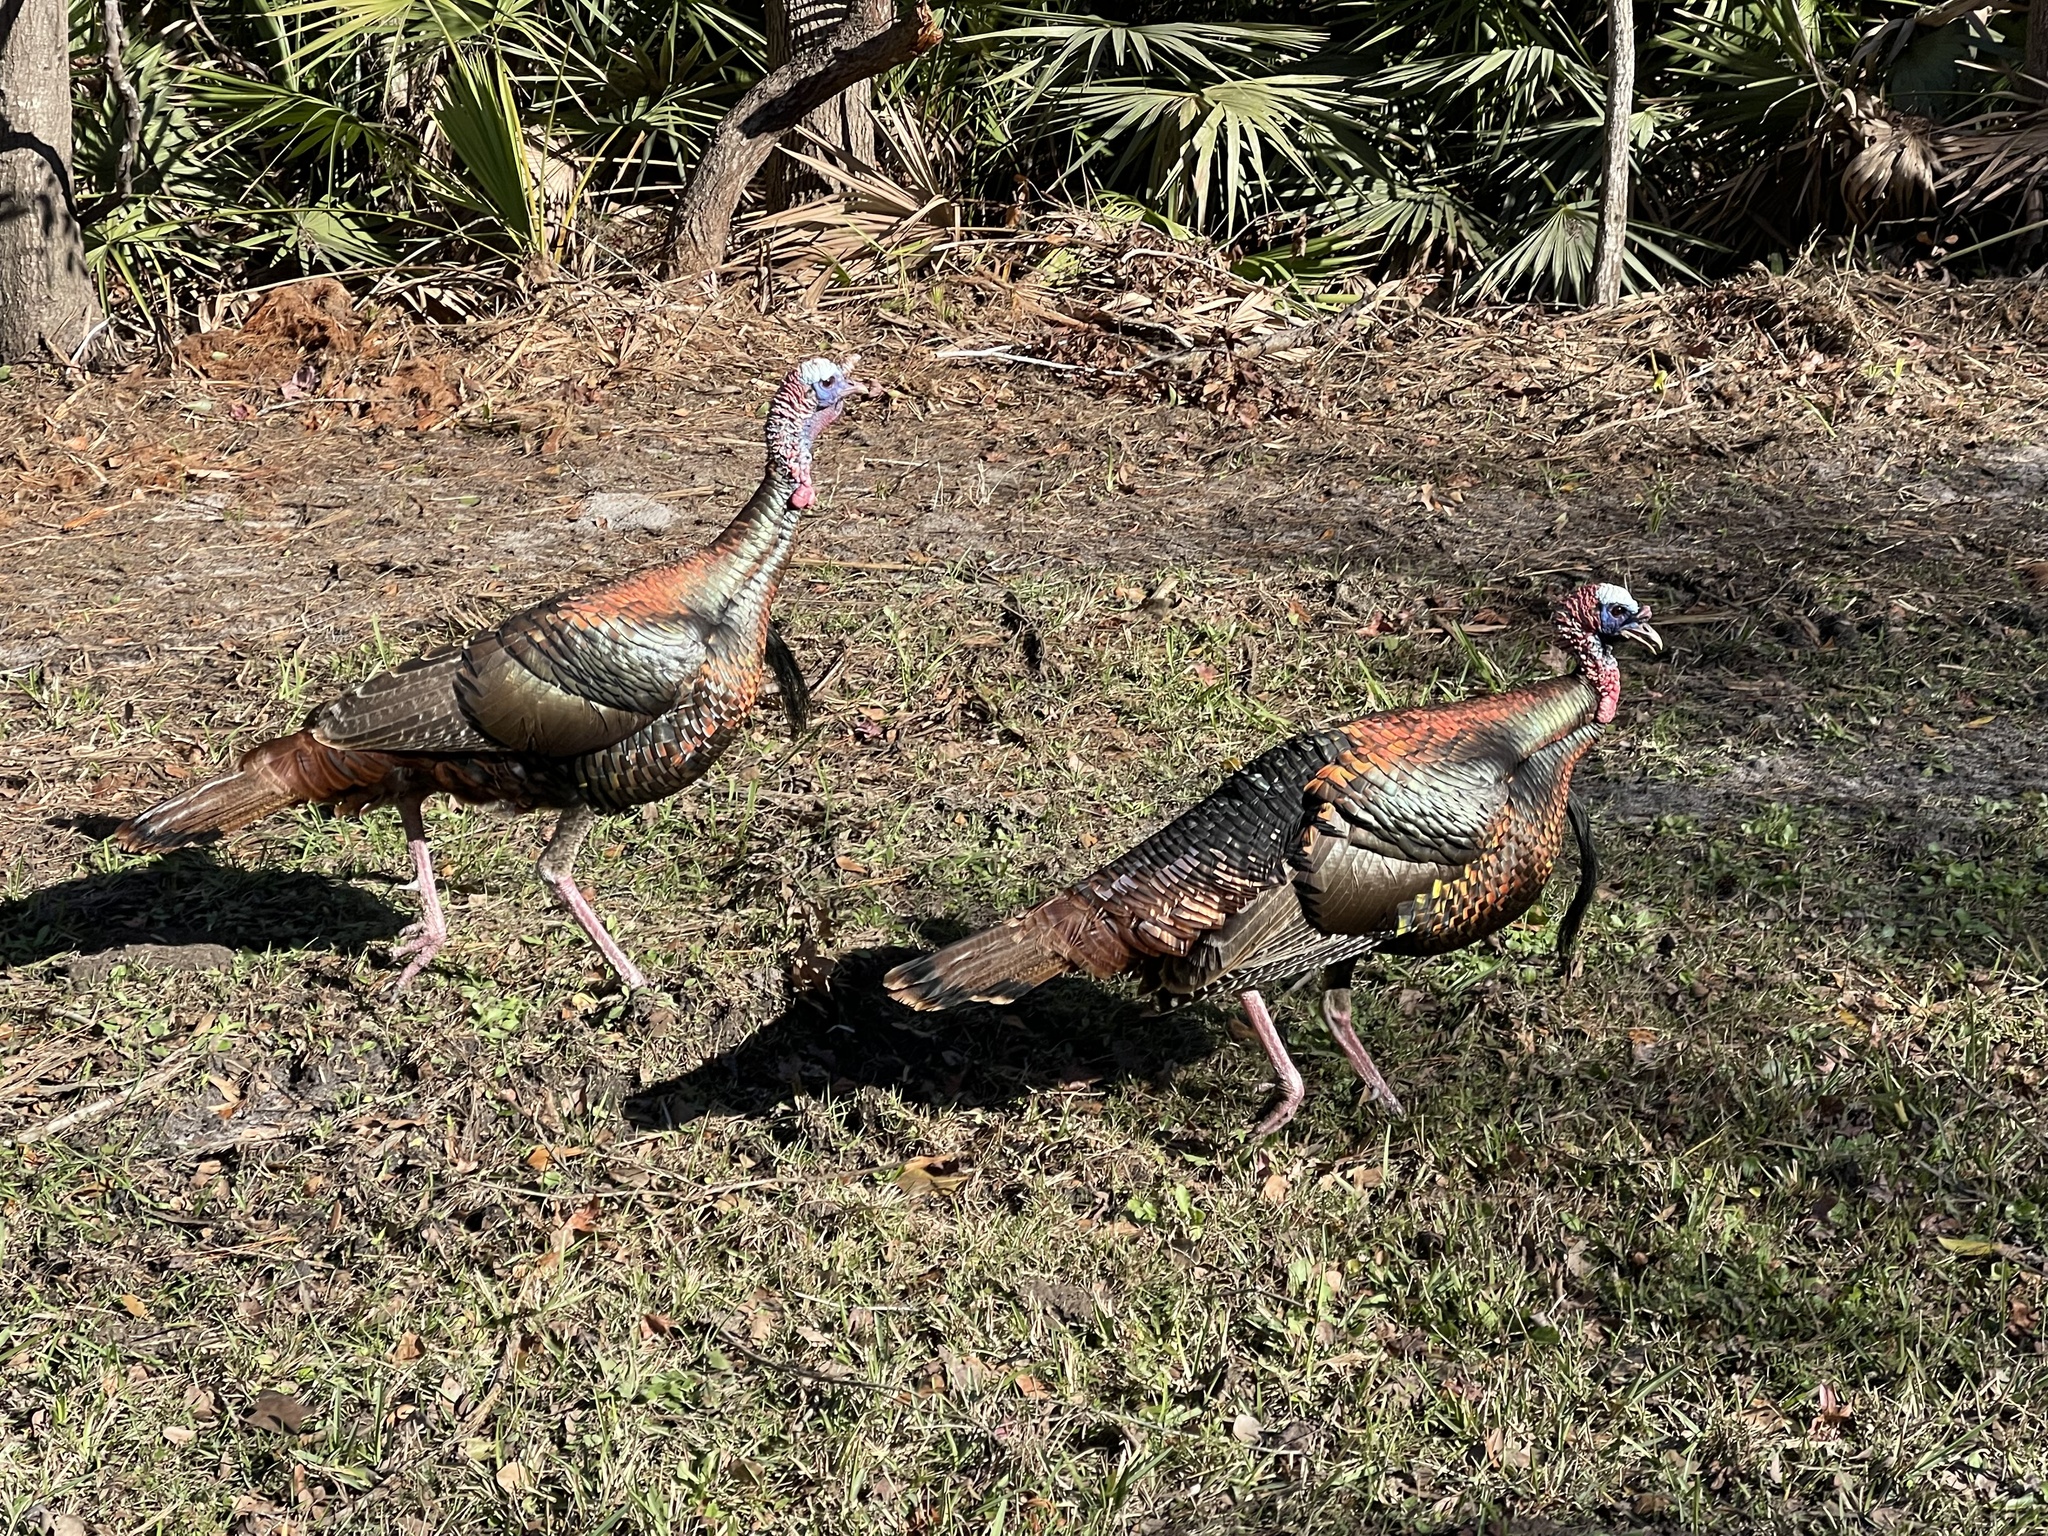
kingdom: Animalia
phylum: Chordata
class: Aves
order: Galliformes
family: Phasianidae
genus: Meleagris
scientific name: Meleagris gallopavo
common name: Wild turkey
